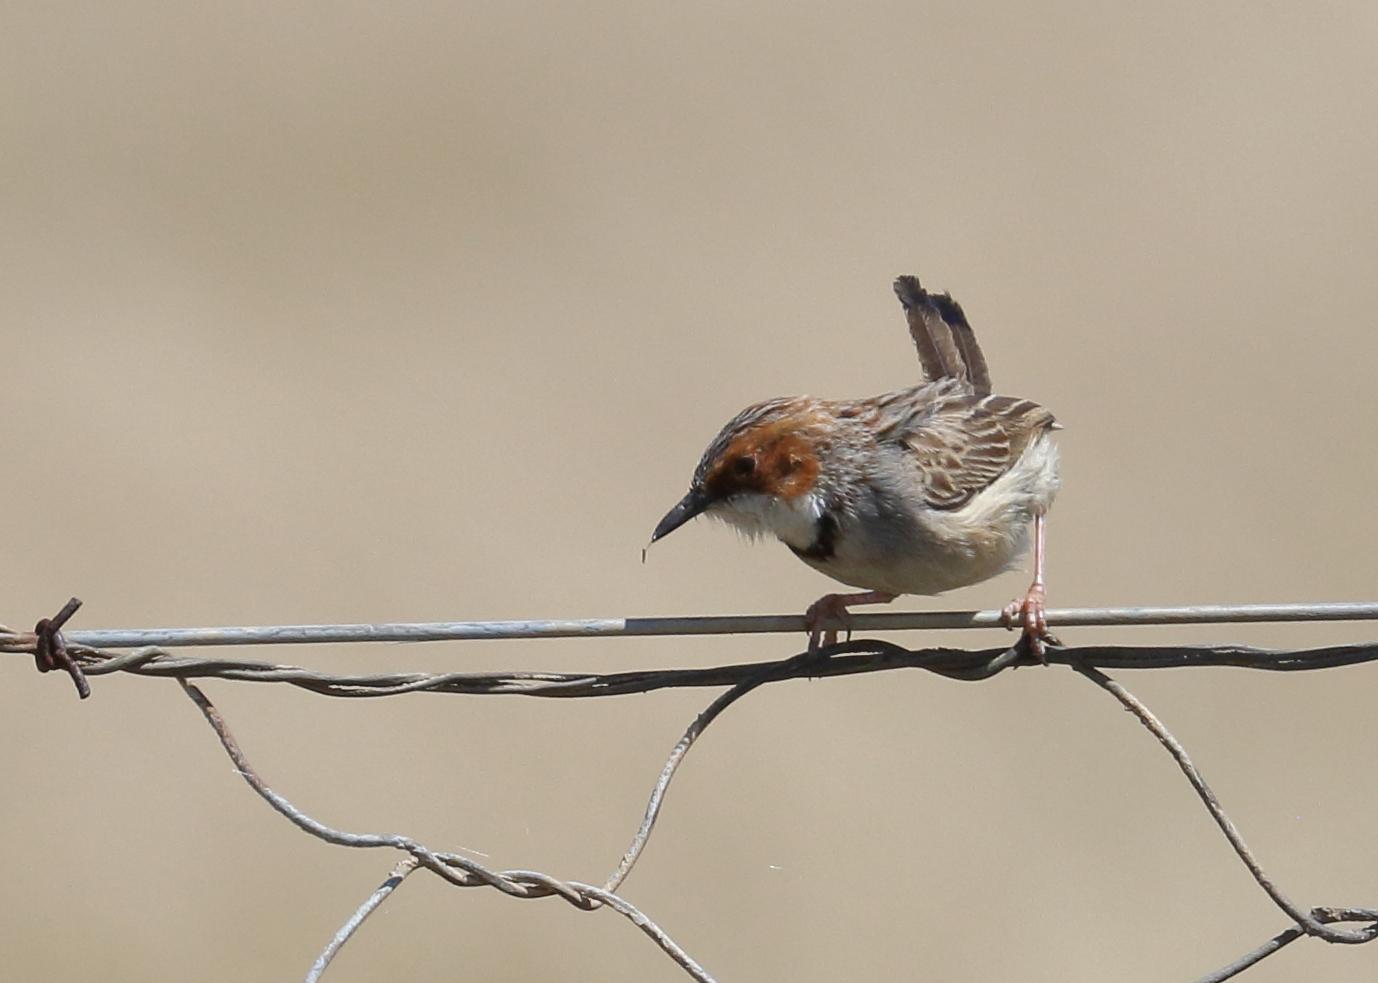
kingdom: Animalia
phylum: Chordata
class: Aves
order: Passeriformes
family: Cisticolidae
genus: Malcorus
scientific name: Malcorus pectoralis
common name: Rufous-eared warbler
